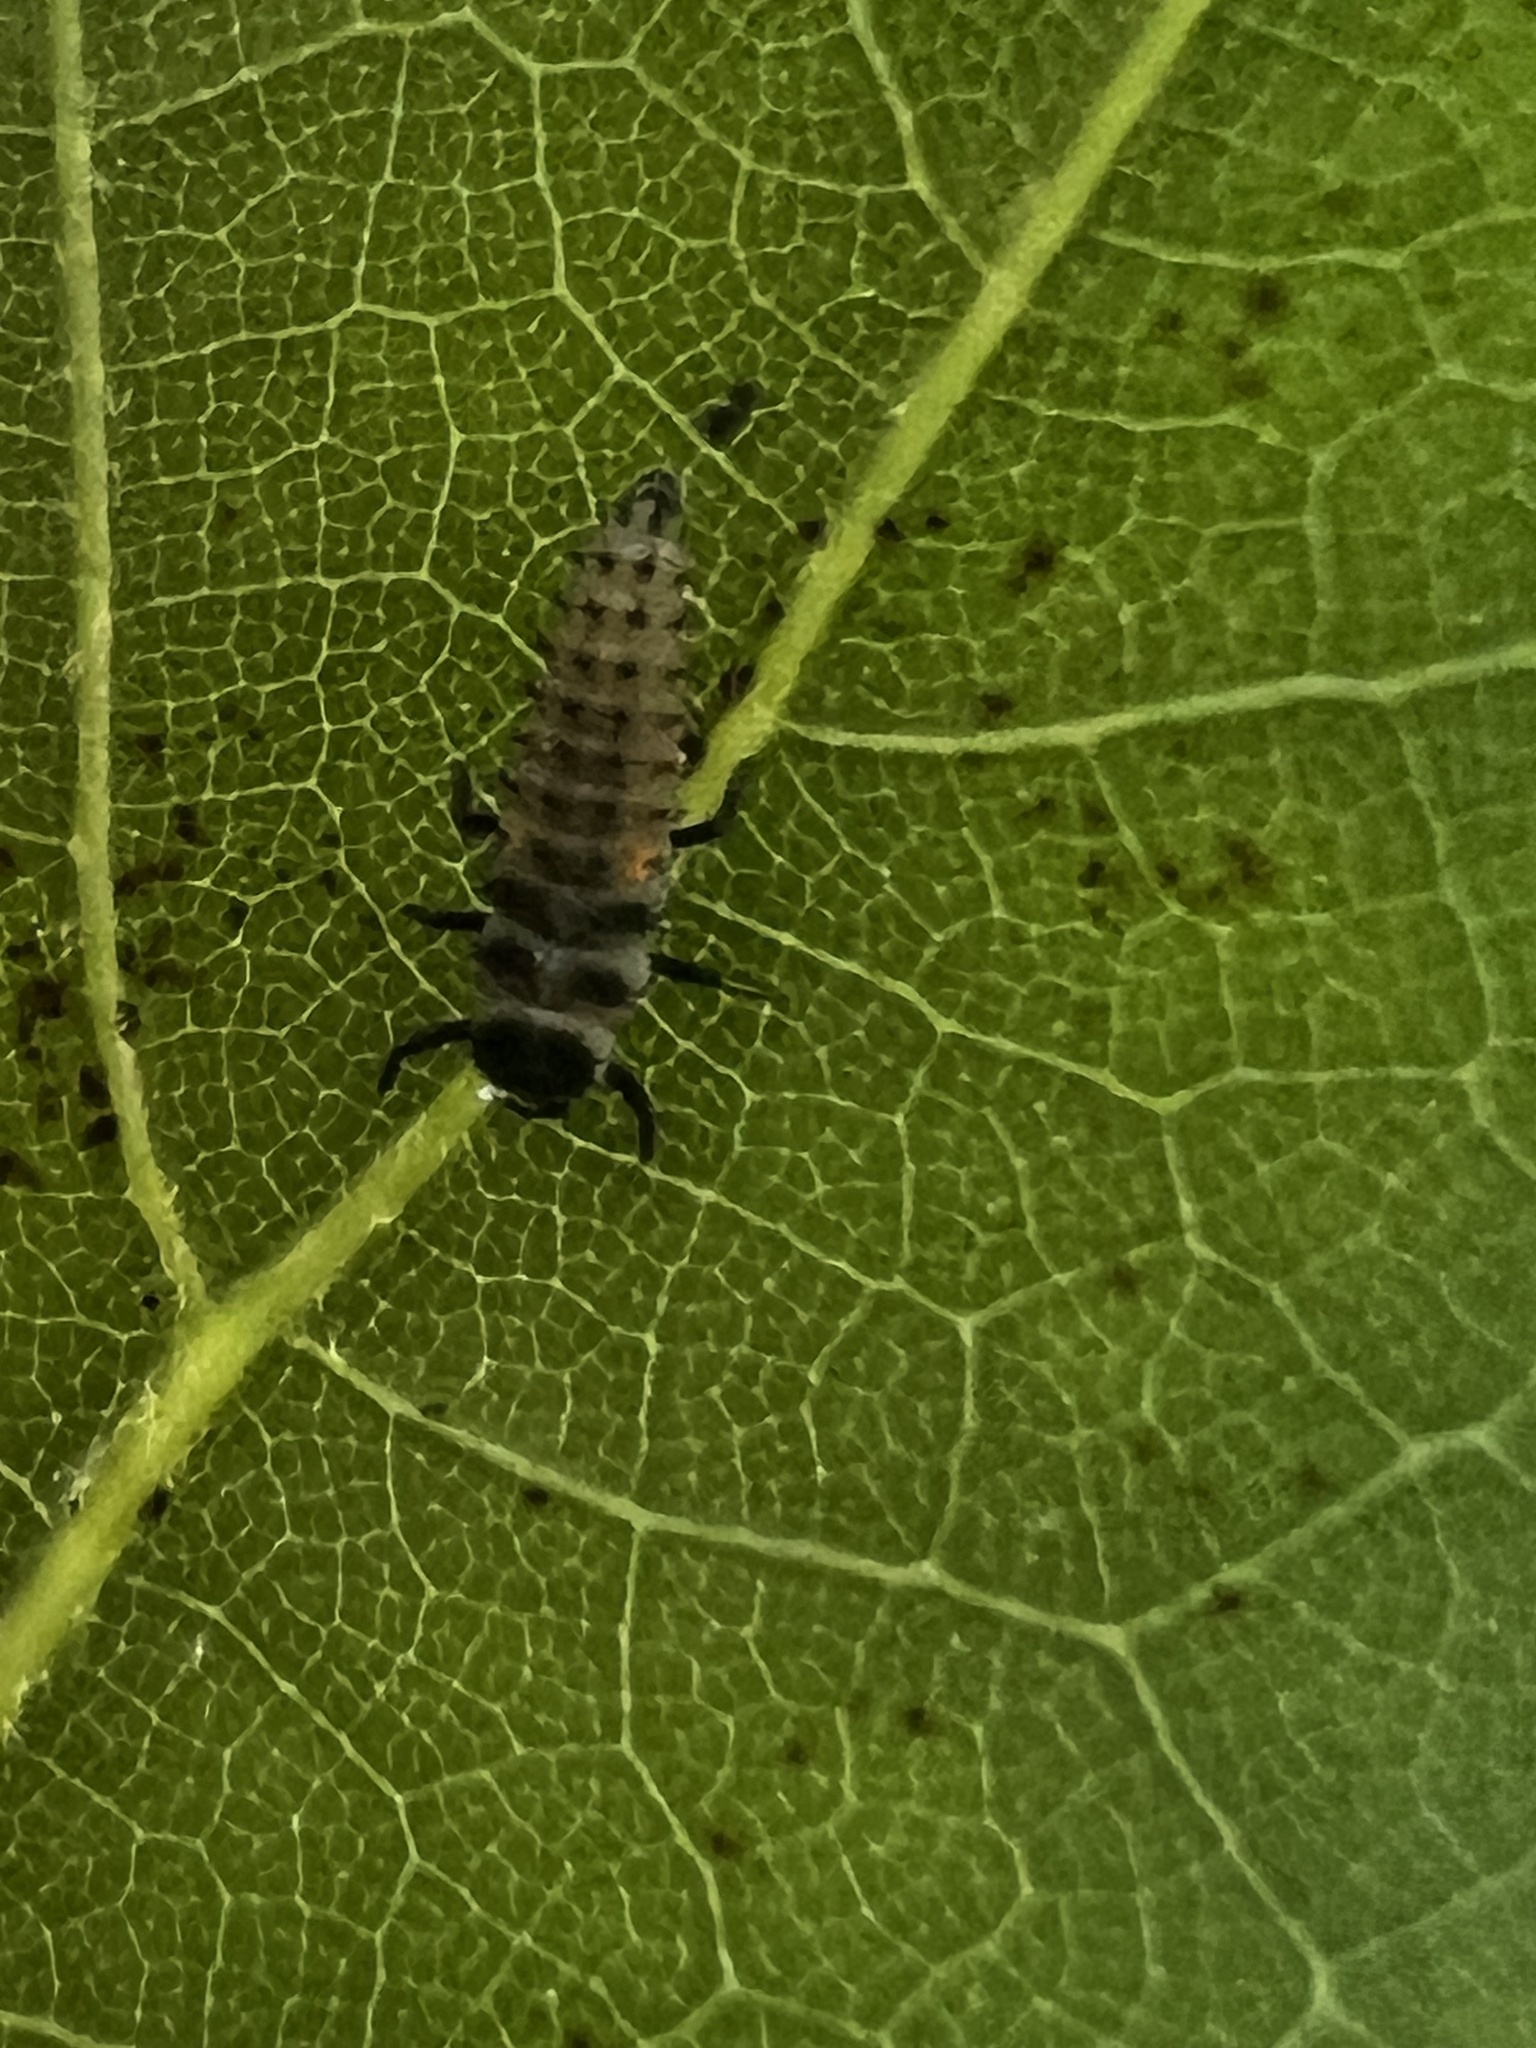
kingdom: Animalia
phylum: Arthropoda
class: Insecta
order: Coleoptera
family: Coccinellidae
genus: Harmonia
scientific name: Harmonia axyridis
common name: Harlequin ladybird
